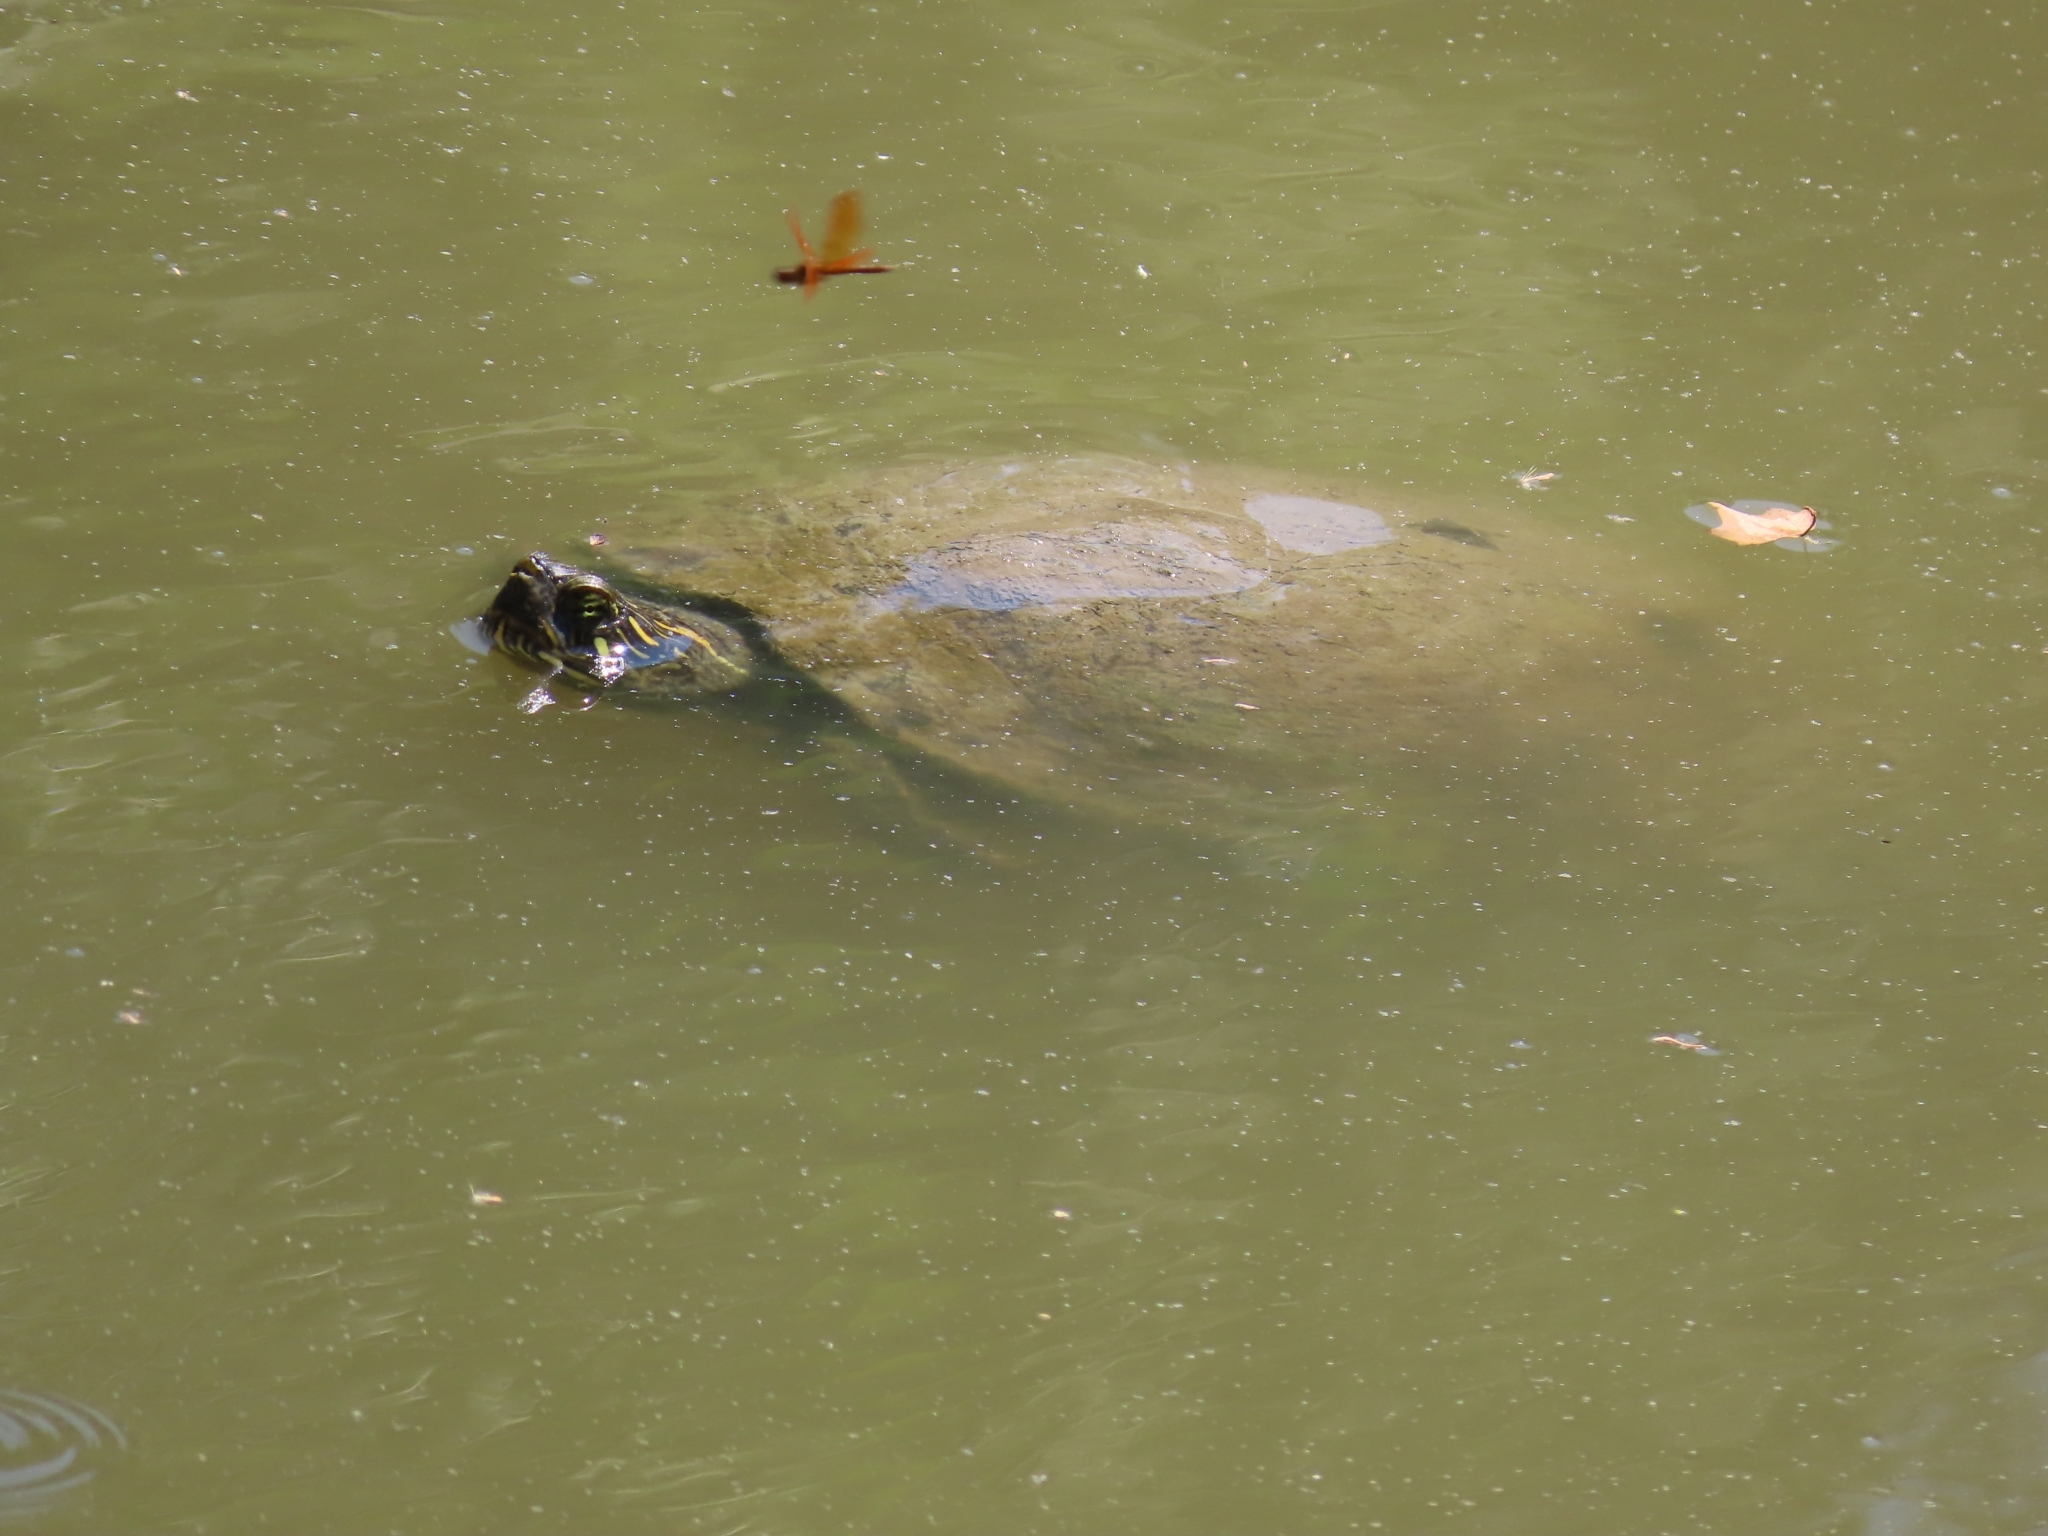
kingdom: Animalia
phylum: Chordata
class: Testudines
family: Emydidae
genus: Pseudemys
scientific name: Pseudemys texana
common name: Texas river cooter
